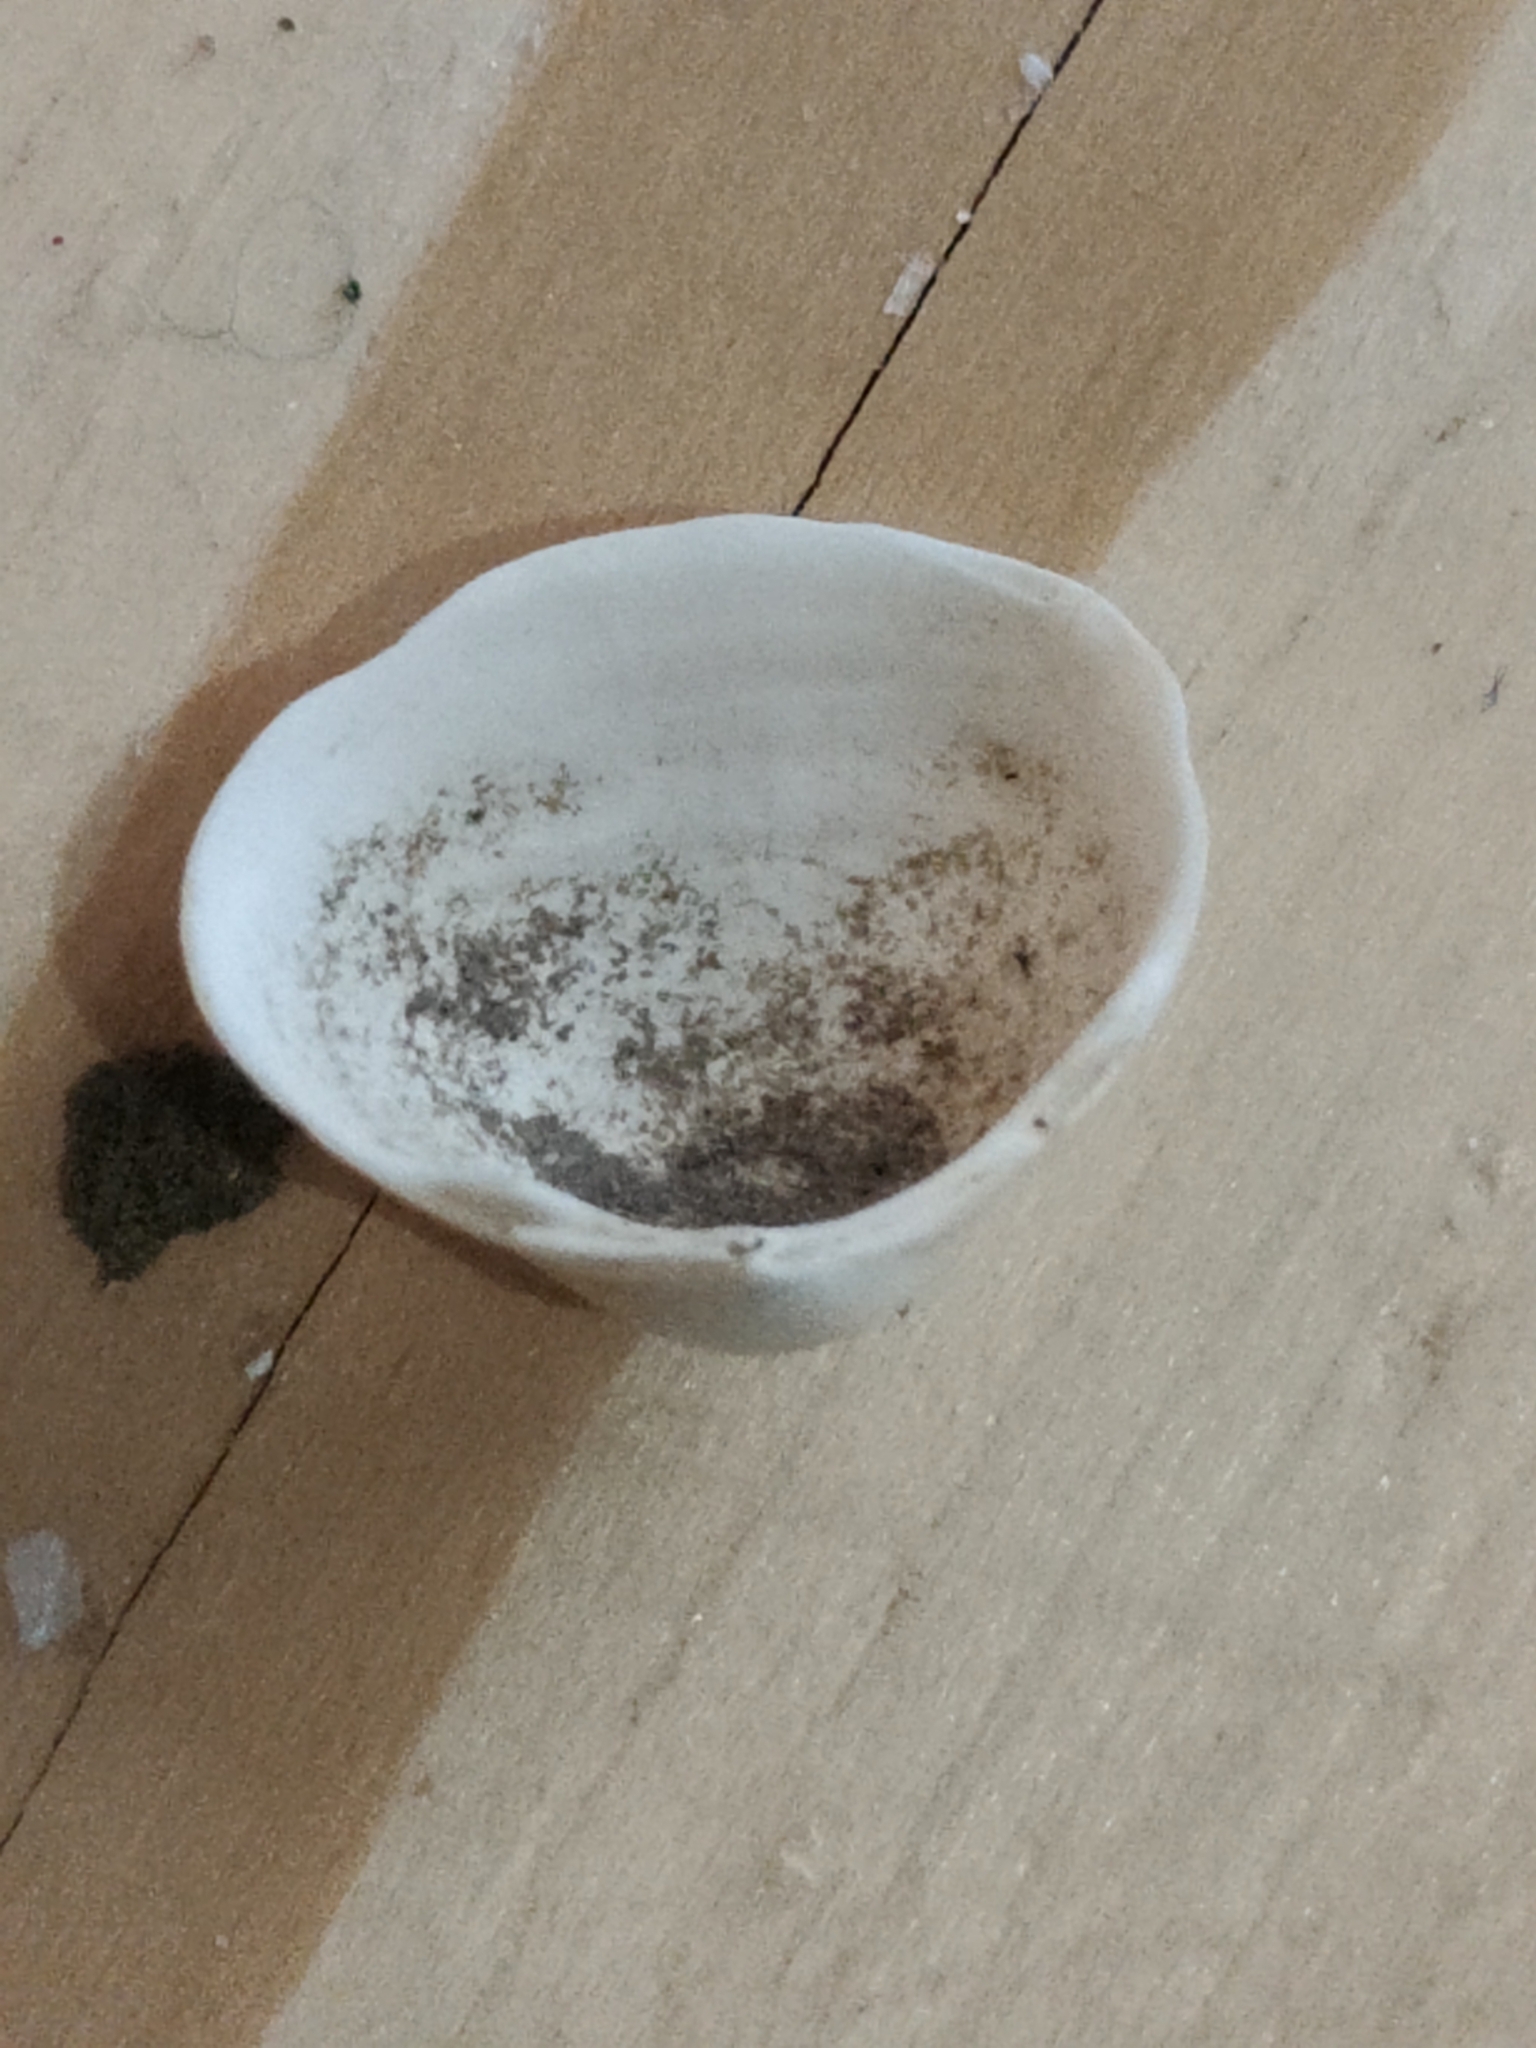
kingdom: Animalia
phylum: Mollusca
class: Bivalvia
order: Sphaeriida
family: Sphaeriidae
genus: Sphaerium
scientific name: Sphaerium striatinum
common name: Striated fingernailclam
